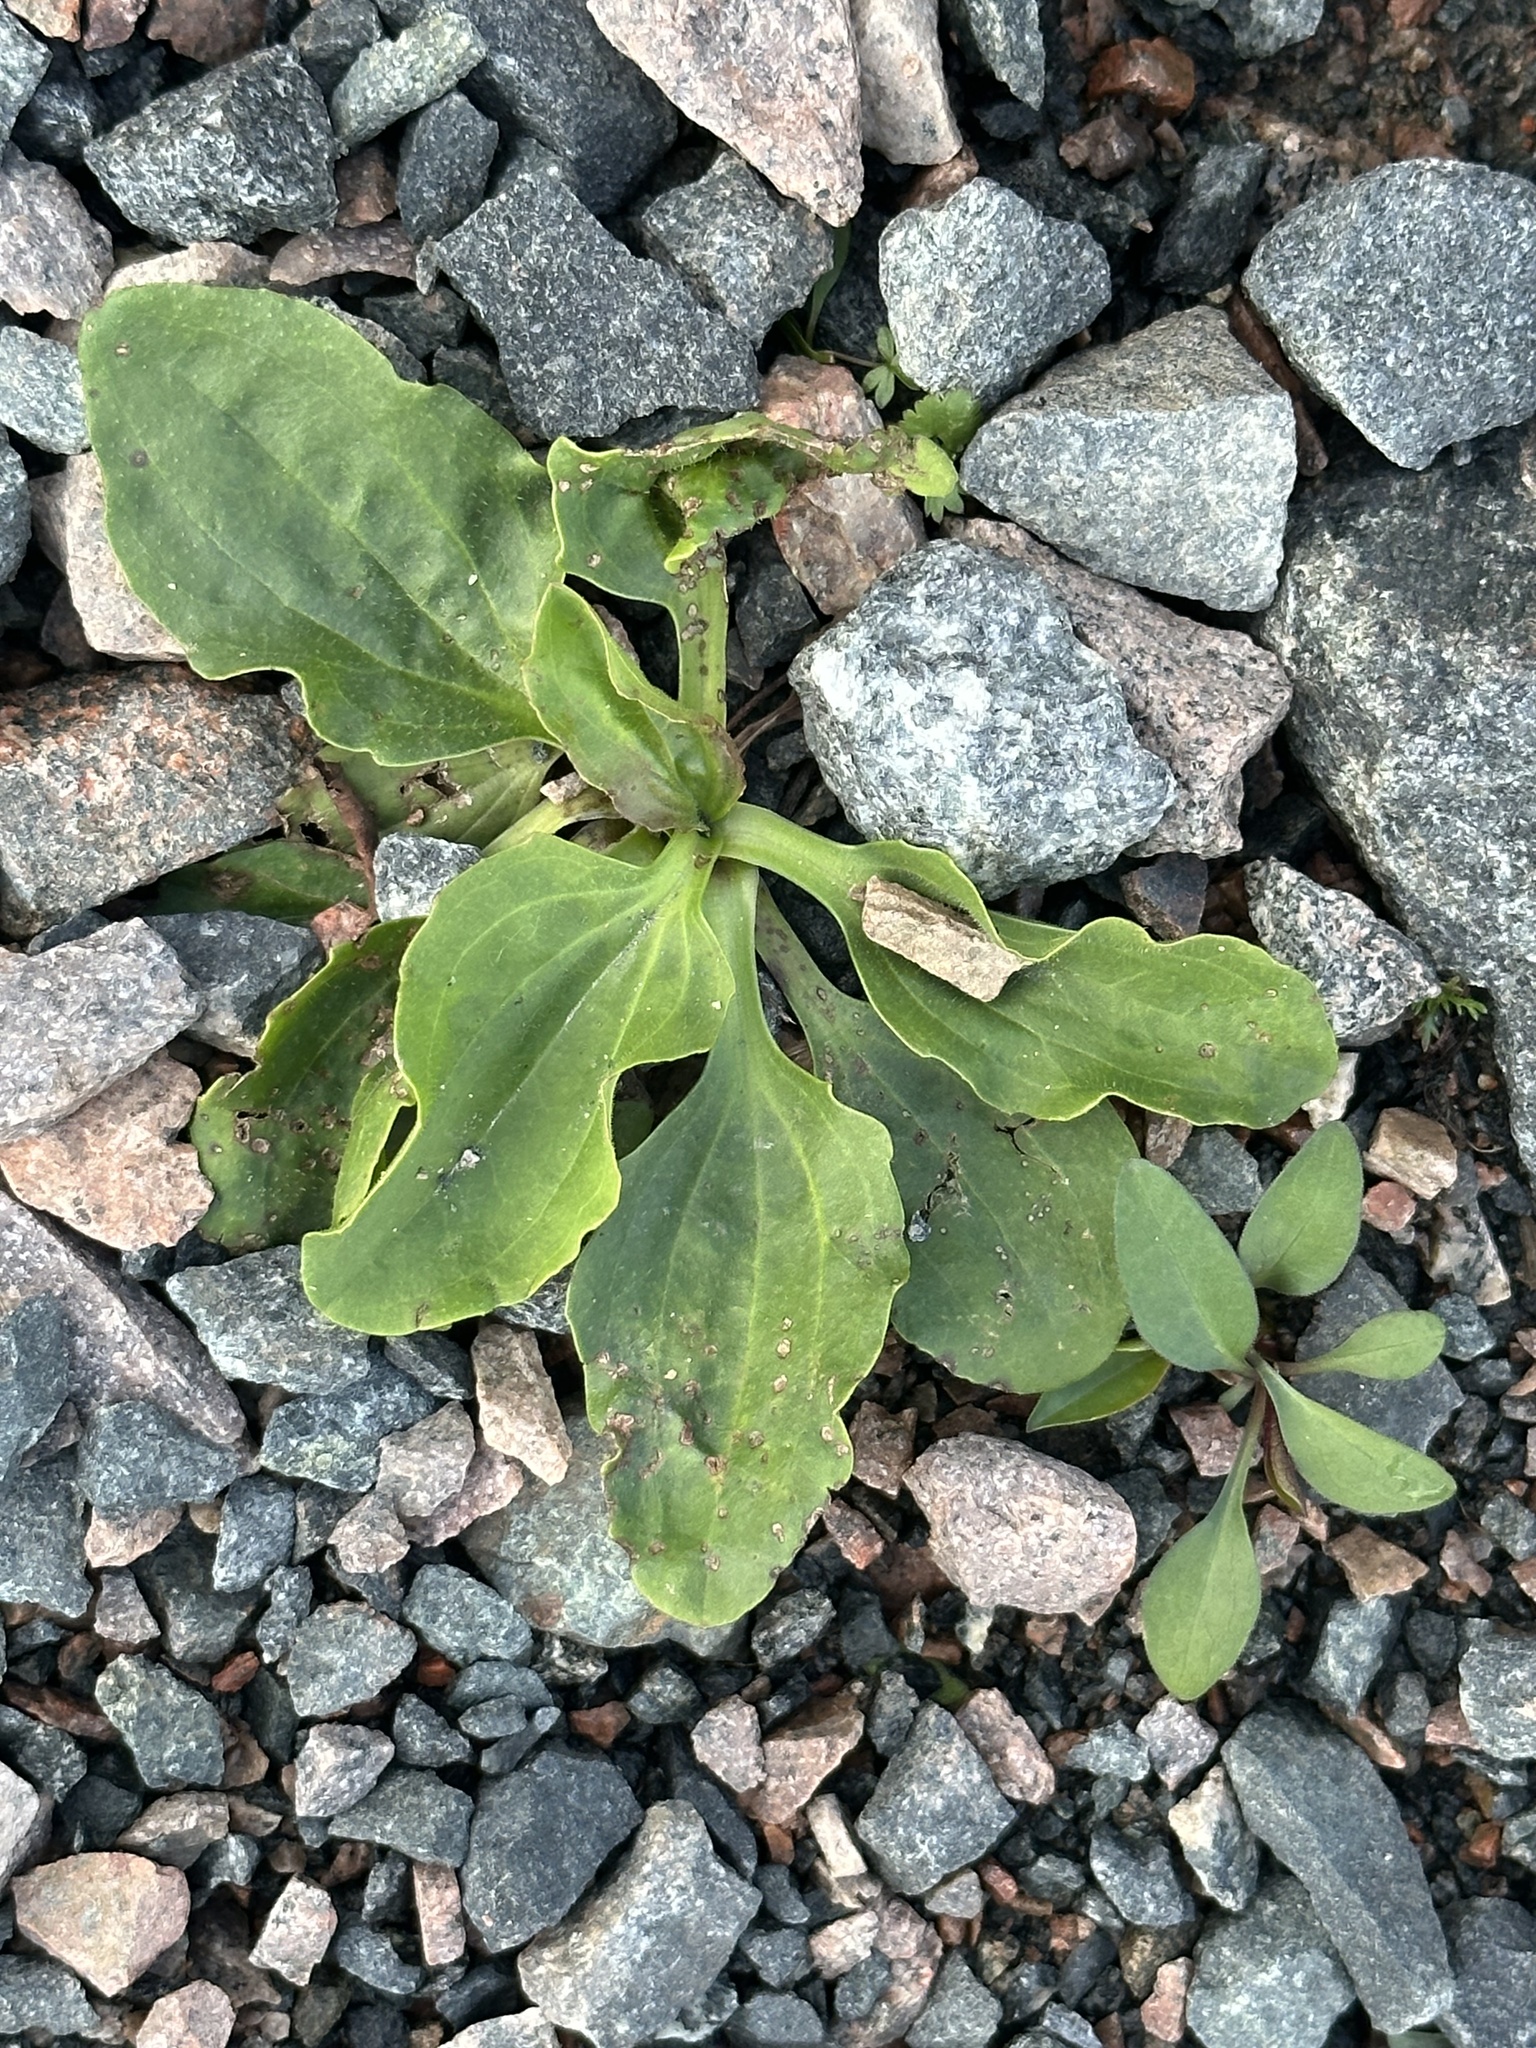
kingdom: Plantae
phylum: Tracheophyta
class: Magnoliopsida
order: Lamiales
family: Plantaginaceae
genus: Plantago
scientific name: Plantago major
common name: Common plantain
